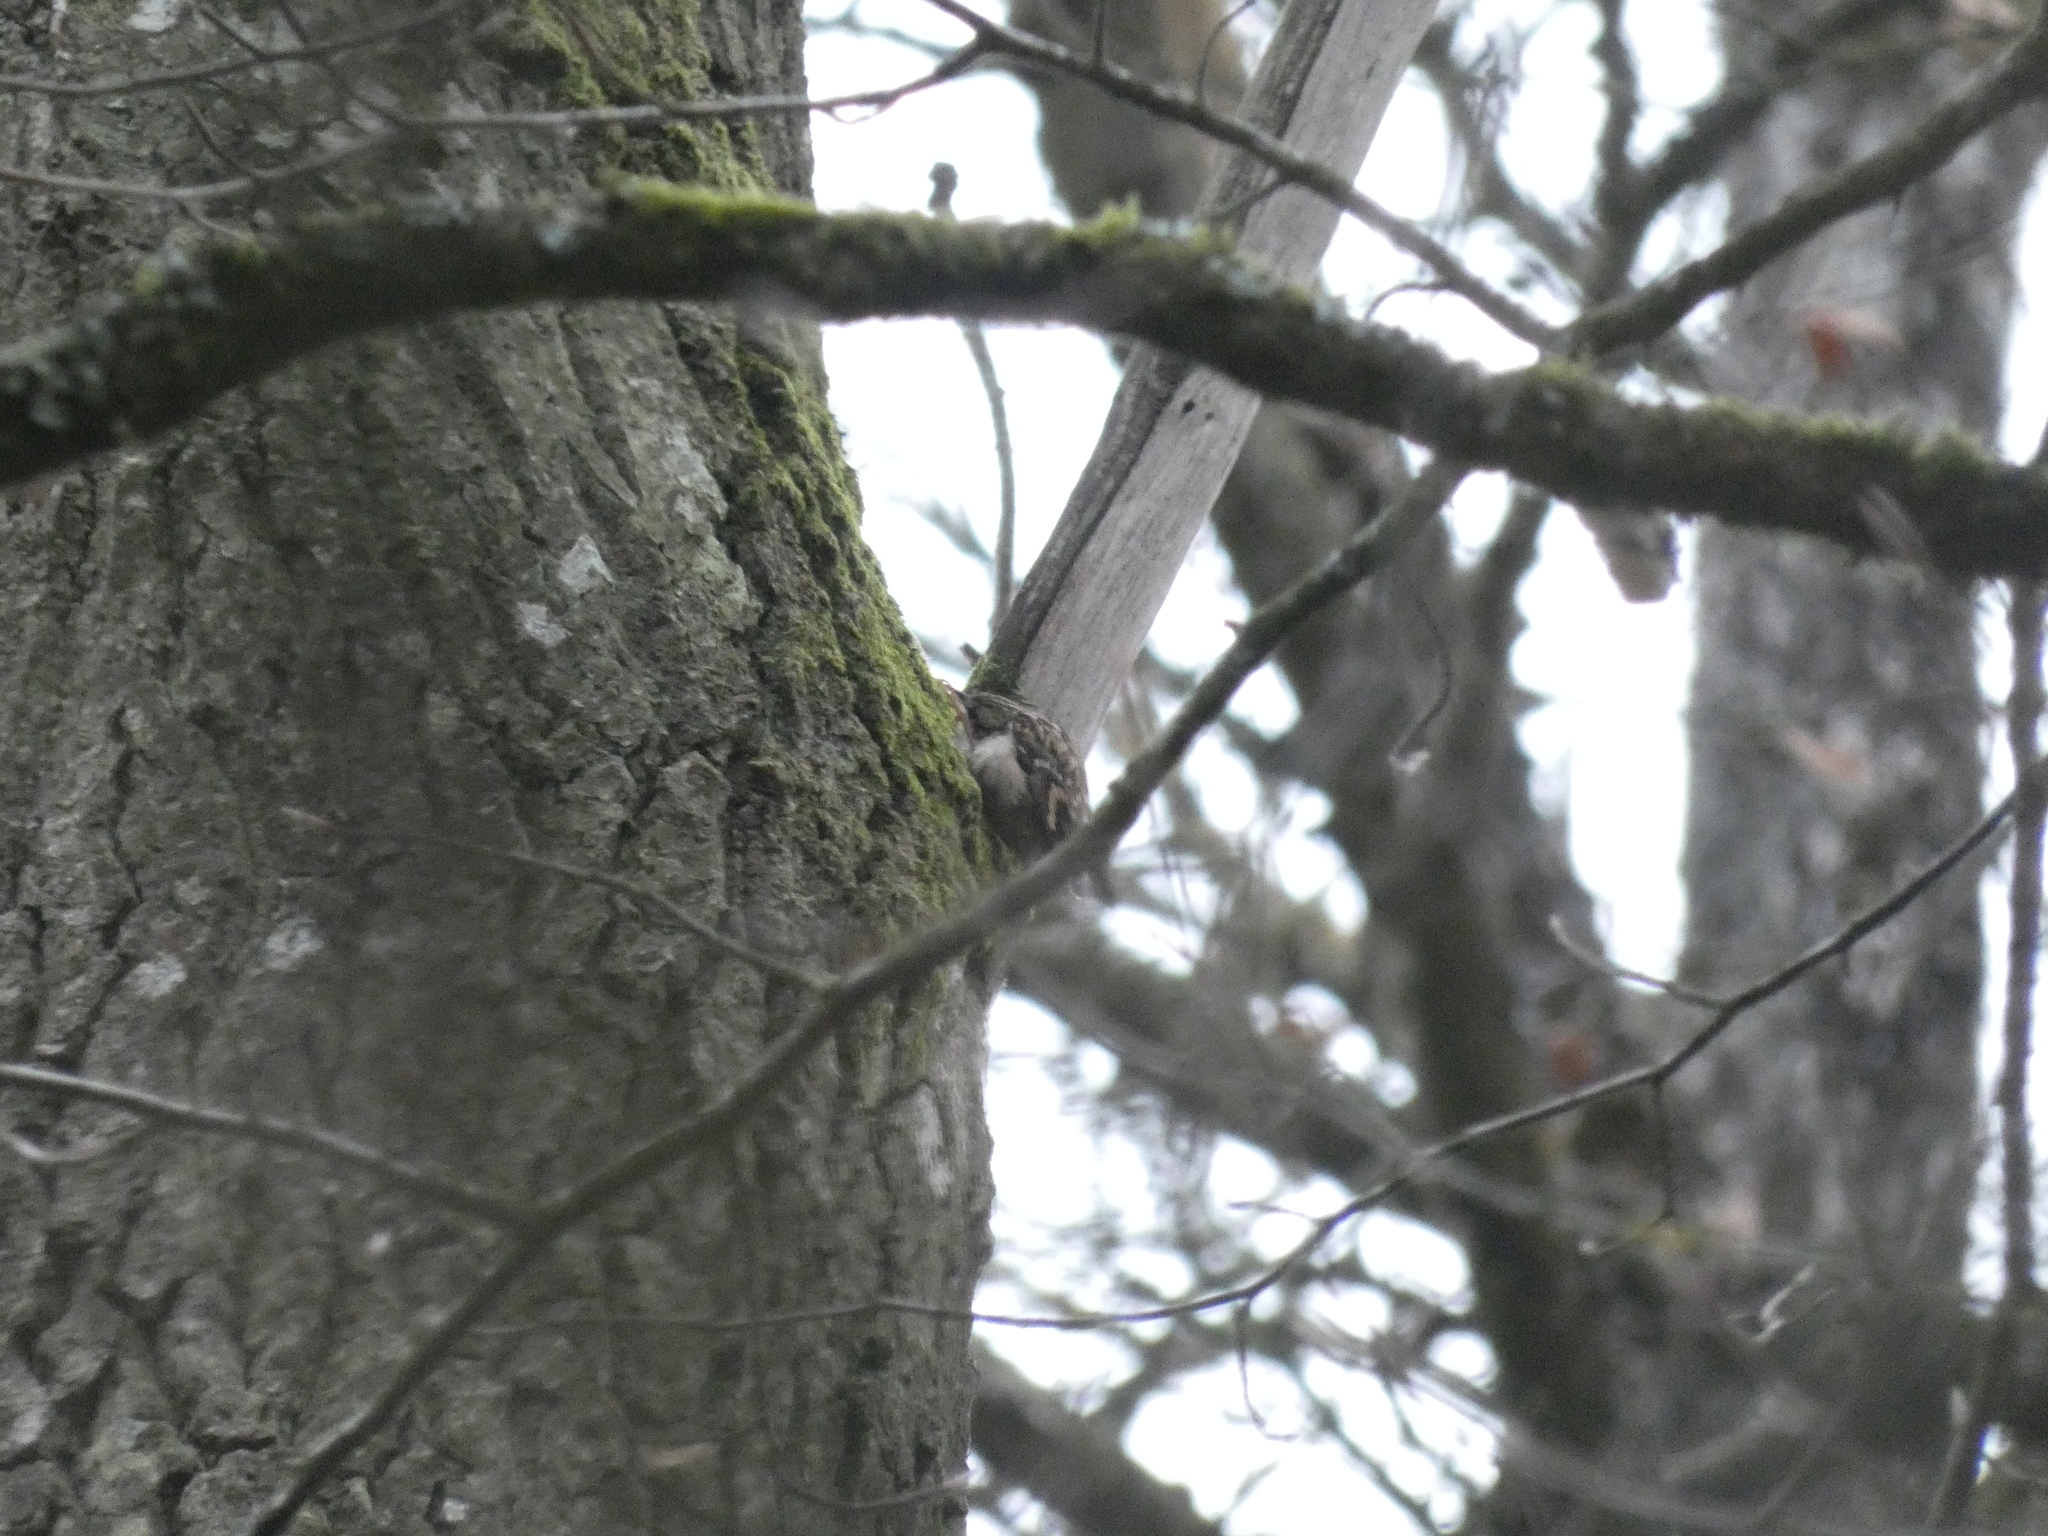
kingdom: Animalia
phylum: Chordata
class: Aves
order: Passeriformes
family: Certhiidae
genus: Certhia
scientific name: Certhia brachydactyla
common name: Short-toed treecreeper
